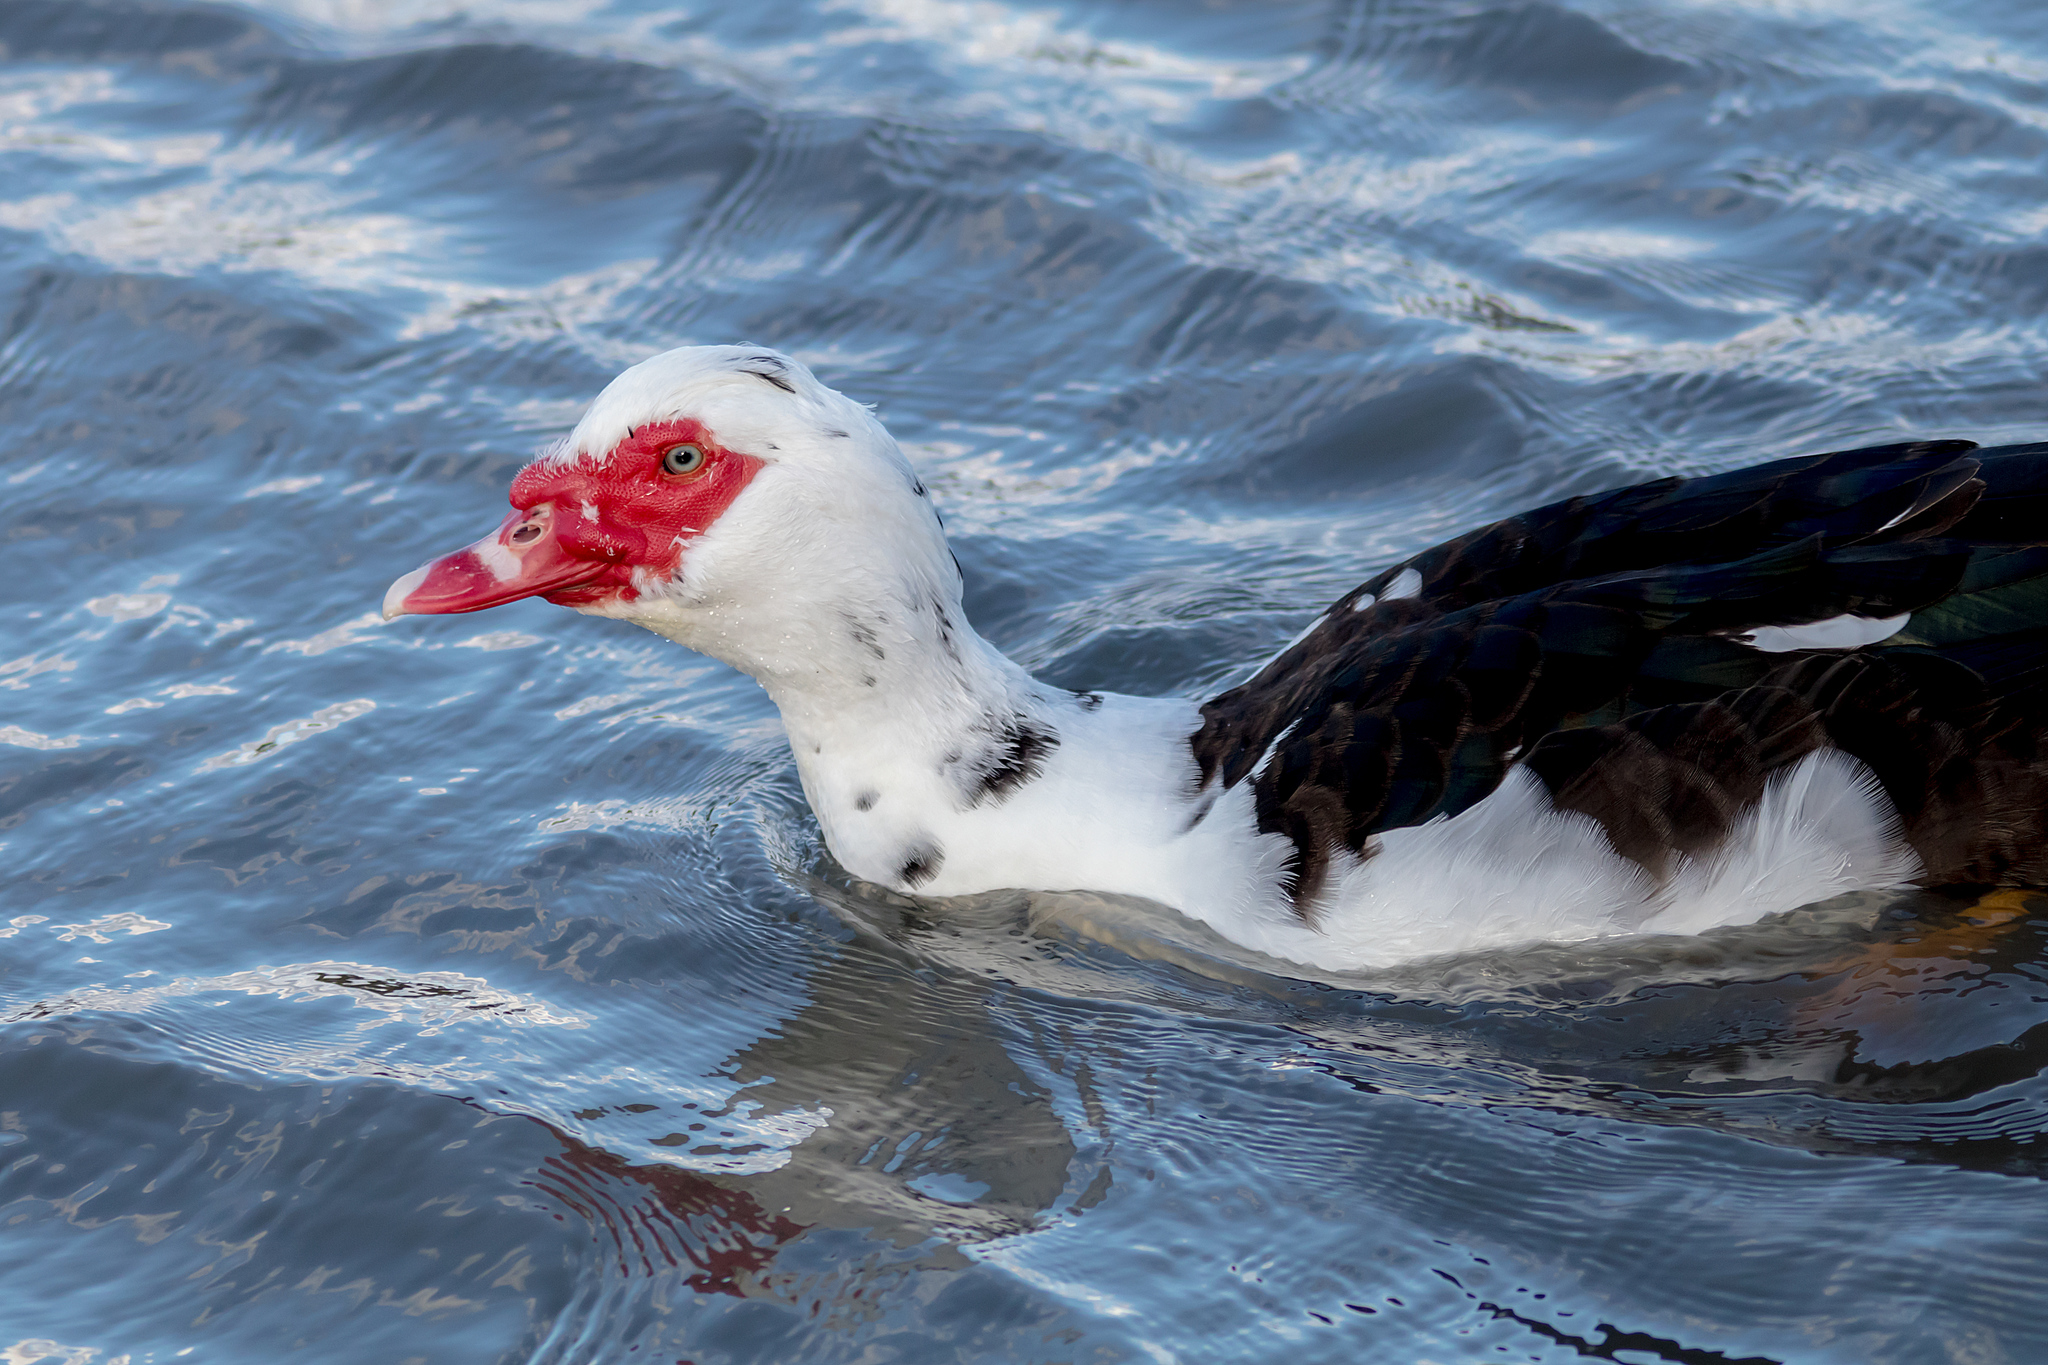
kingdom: Animalia
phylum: Chordata
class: Aves
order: Anseriformes
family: Anatidae
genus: Cairina
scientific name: Cairina moschata
